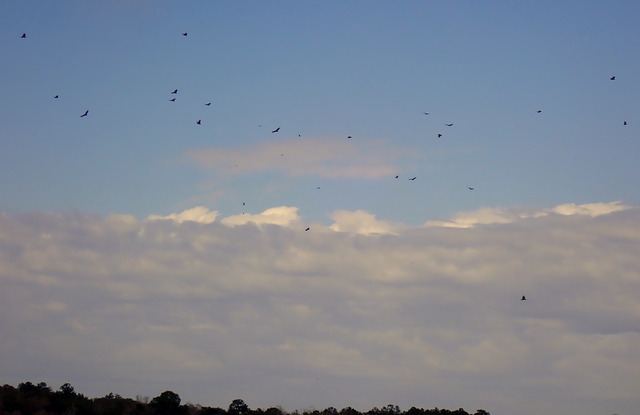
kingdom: Animalia
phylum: Chordata
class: Aves
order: Accipitriformes
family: Cathartidae
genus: Coragyps
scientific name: Coragyps atratus
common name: Black vulture
